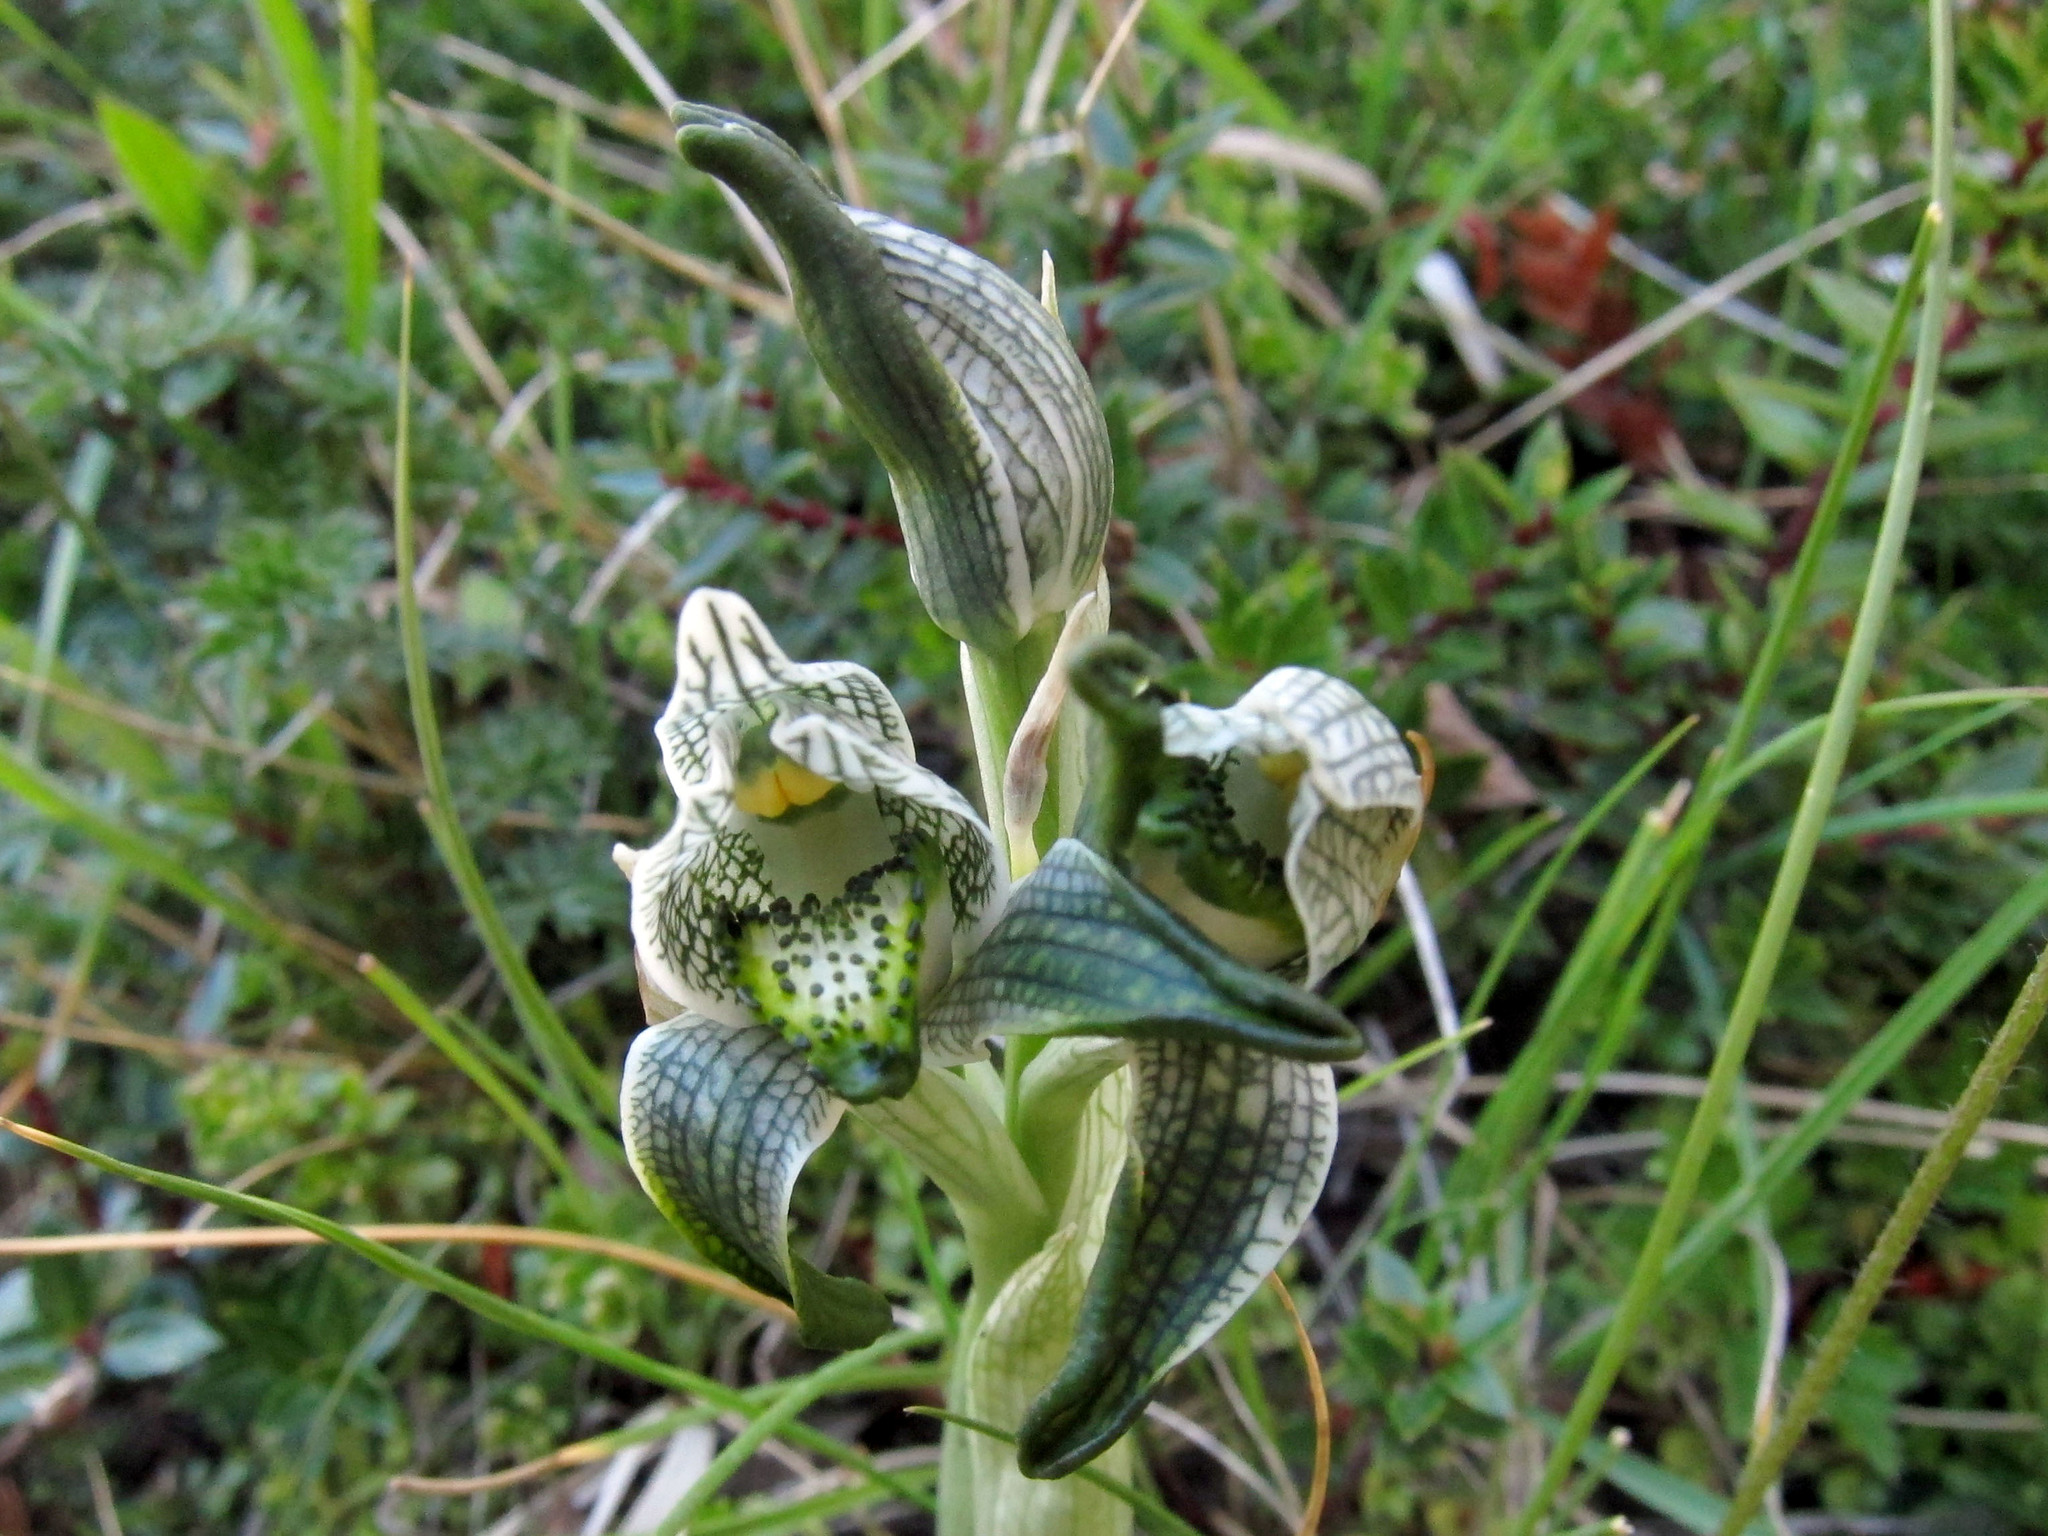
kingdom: Plantae
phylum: Tracheophyta
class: Liliopsida
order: Asparagales
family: Orchidaceae
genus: Chloraea
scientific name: Chloraea magellanica
